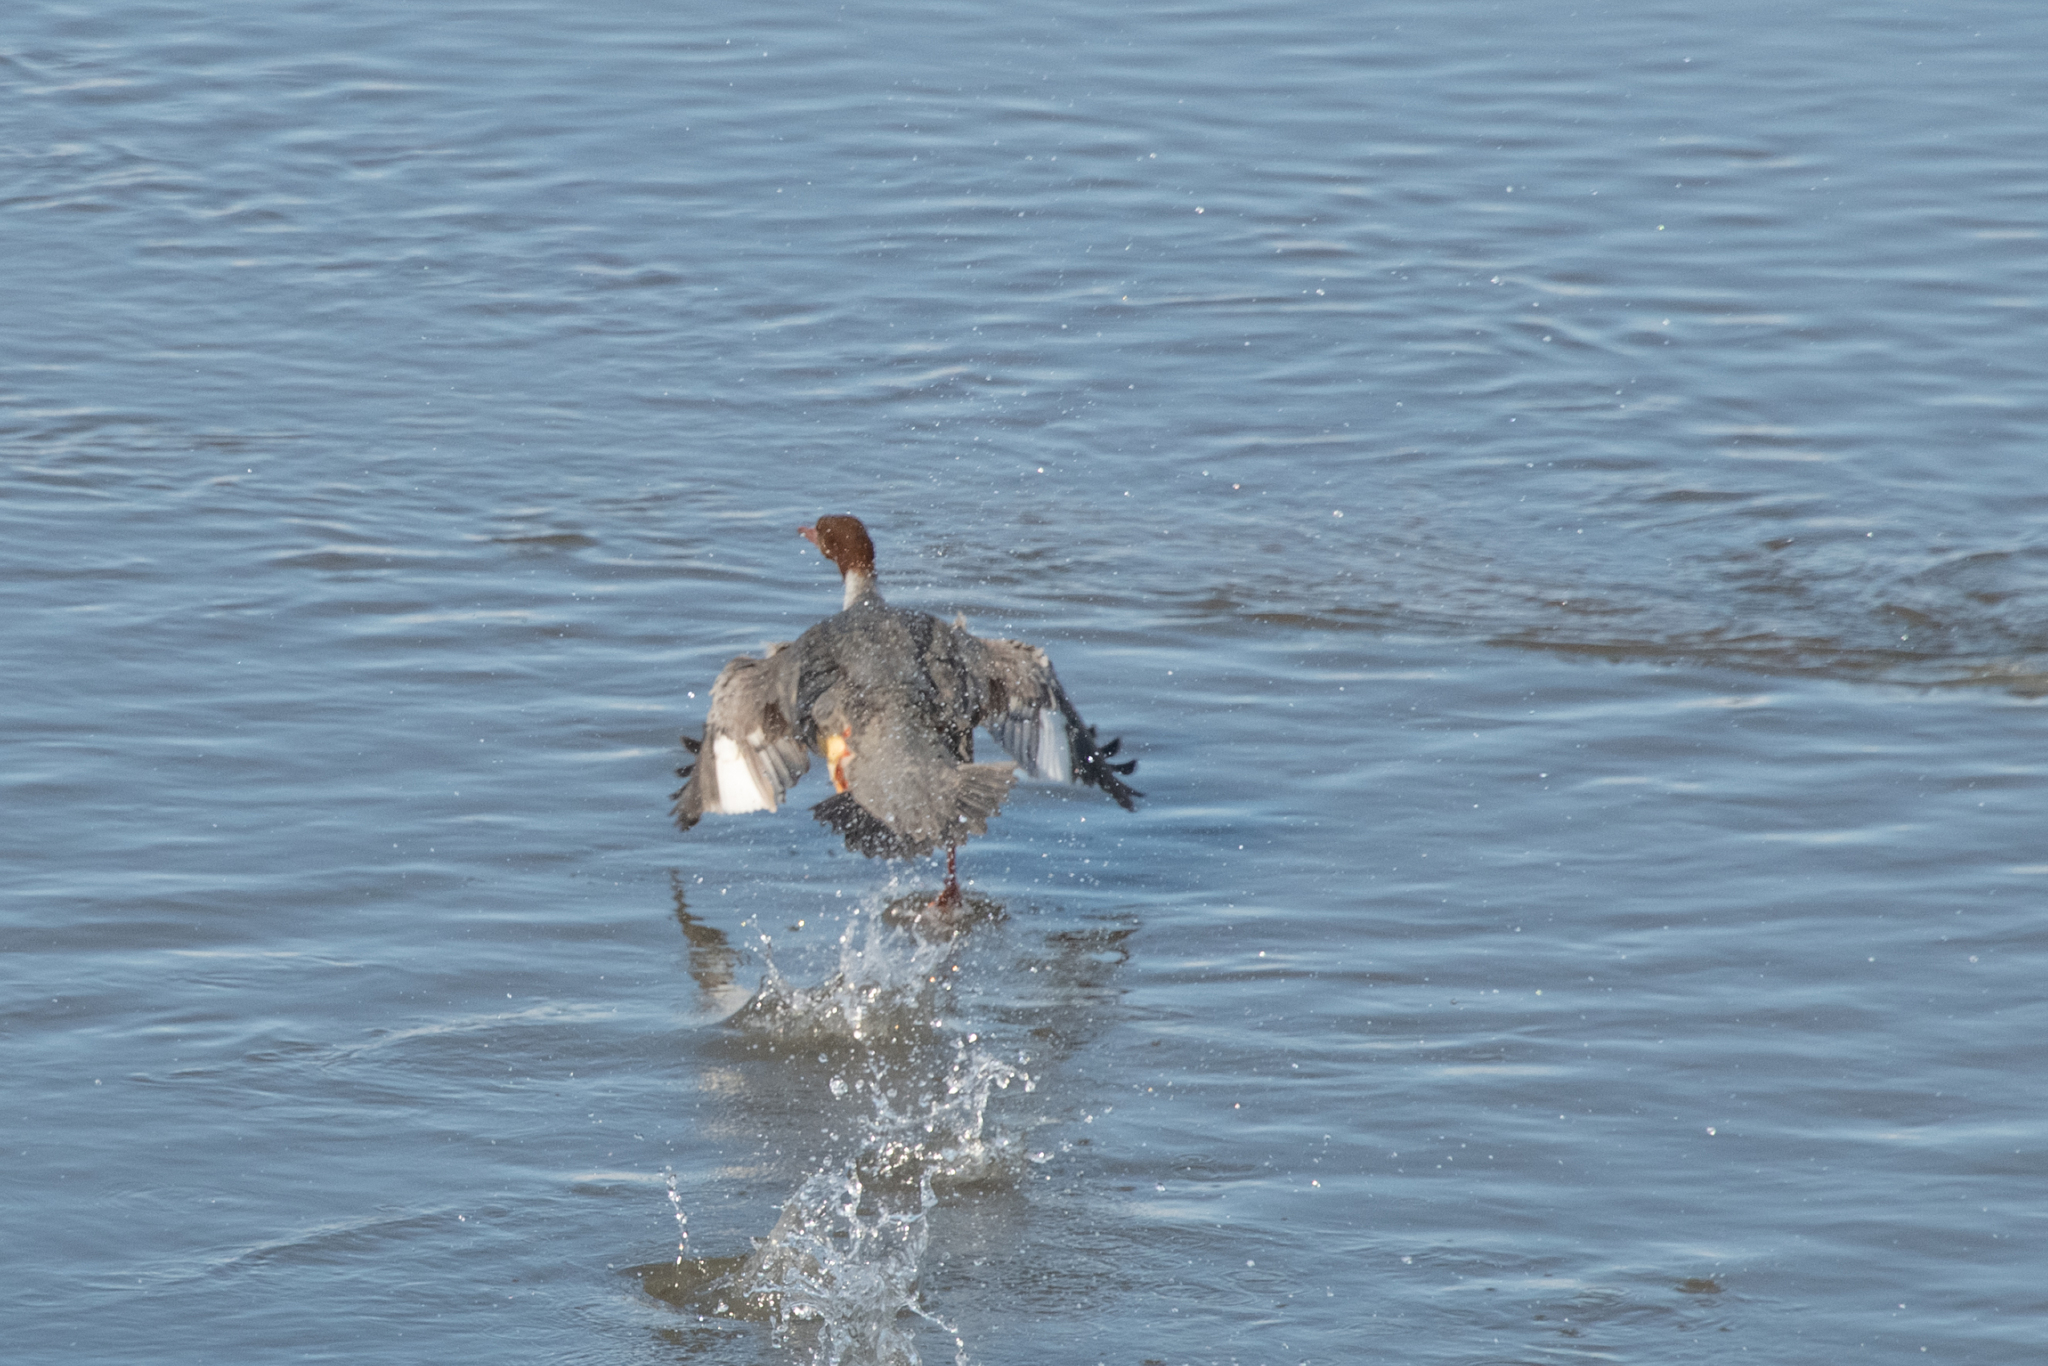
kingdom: Animalia
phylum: Chordata
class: Aves
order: Anseriformes
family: Anatidae
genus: Mergus
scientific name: Mergus merganser
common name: Common merganser
